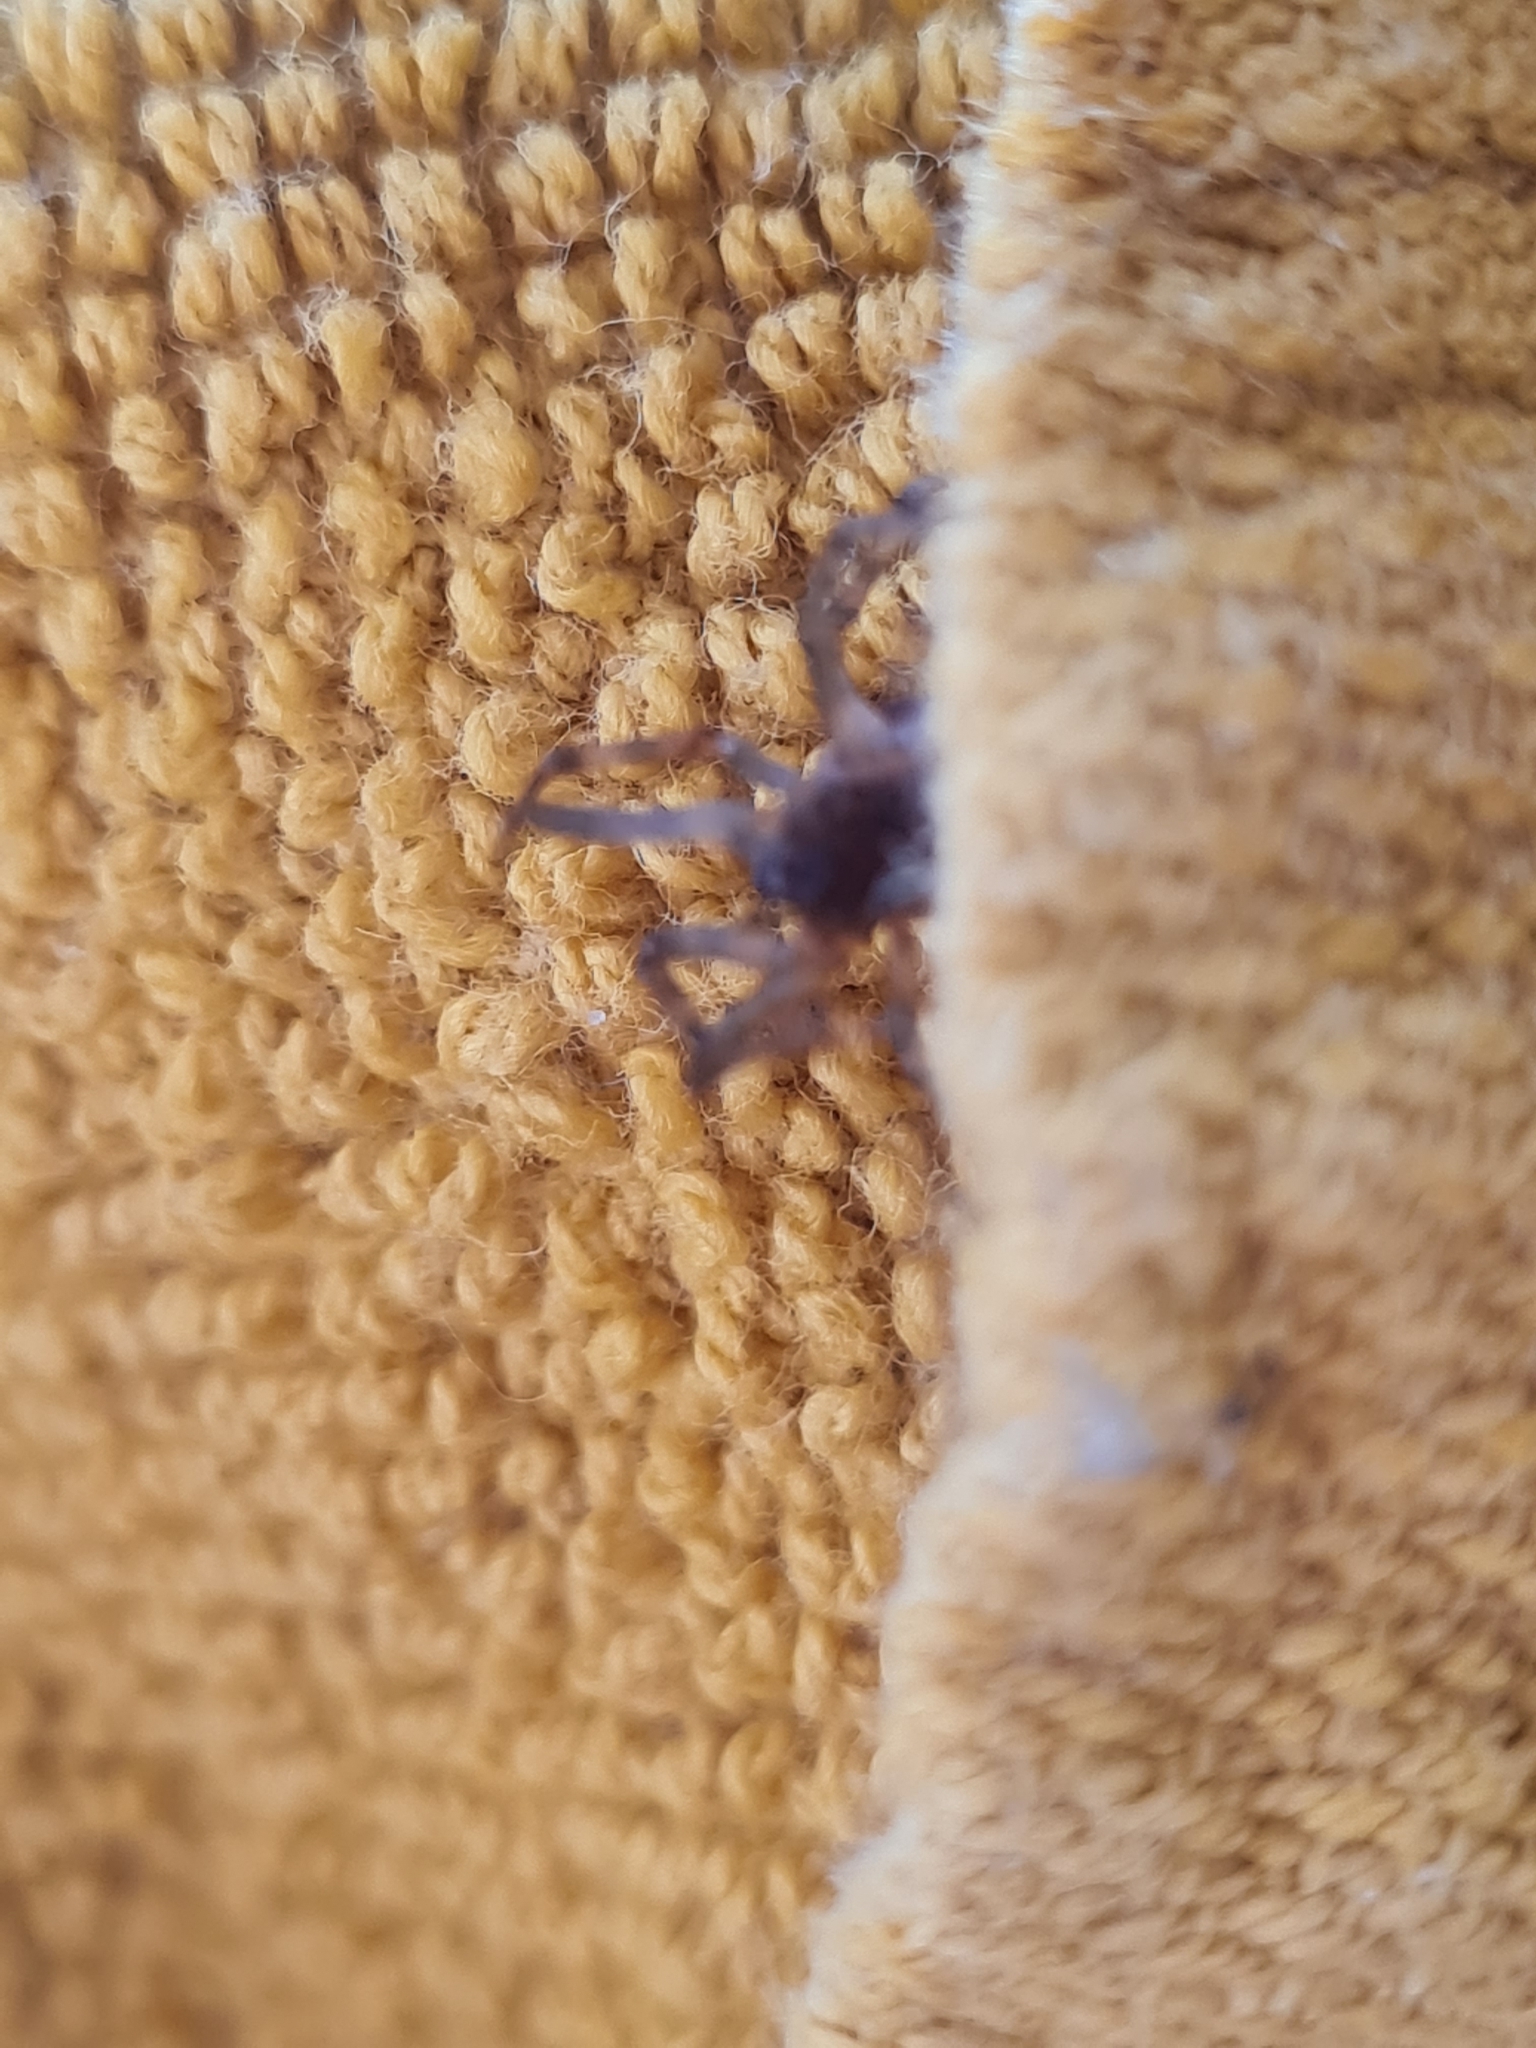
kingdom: Animalia
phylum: Arthropoda
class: Arachnida
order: Araneae
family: Theridiidae
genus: Steatoda
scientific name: Steatoda triangulosa
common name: Triangulate bud spider
